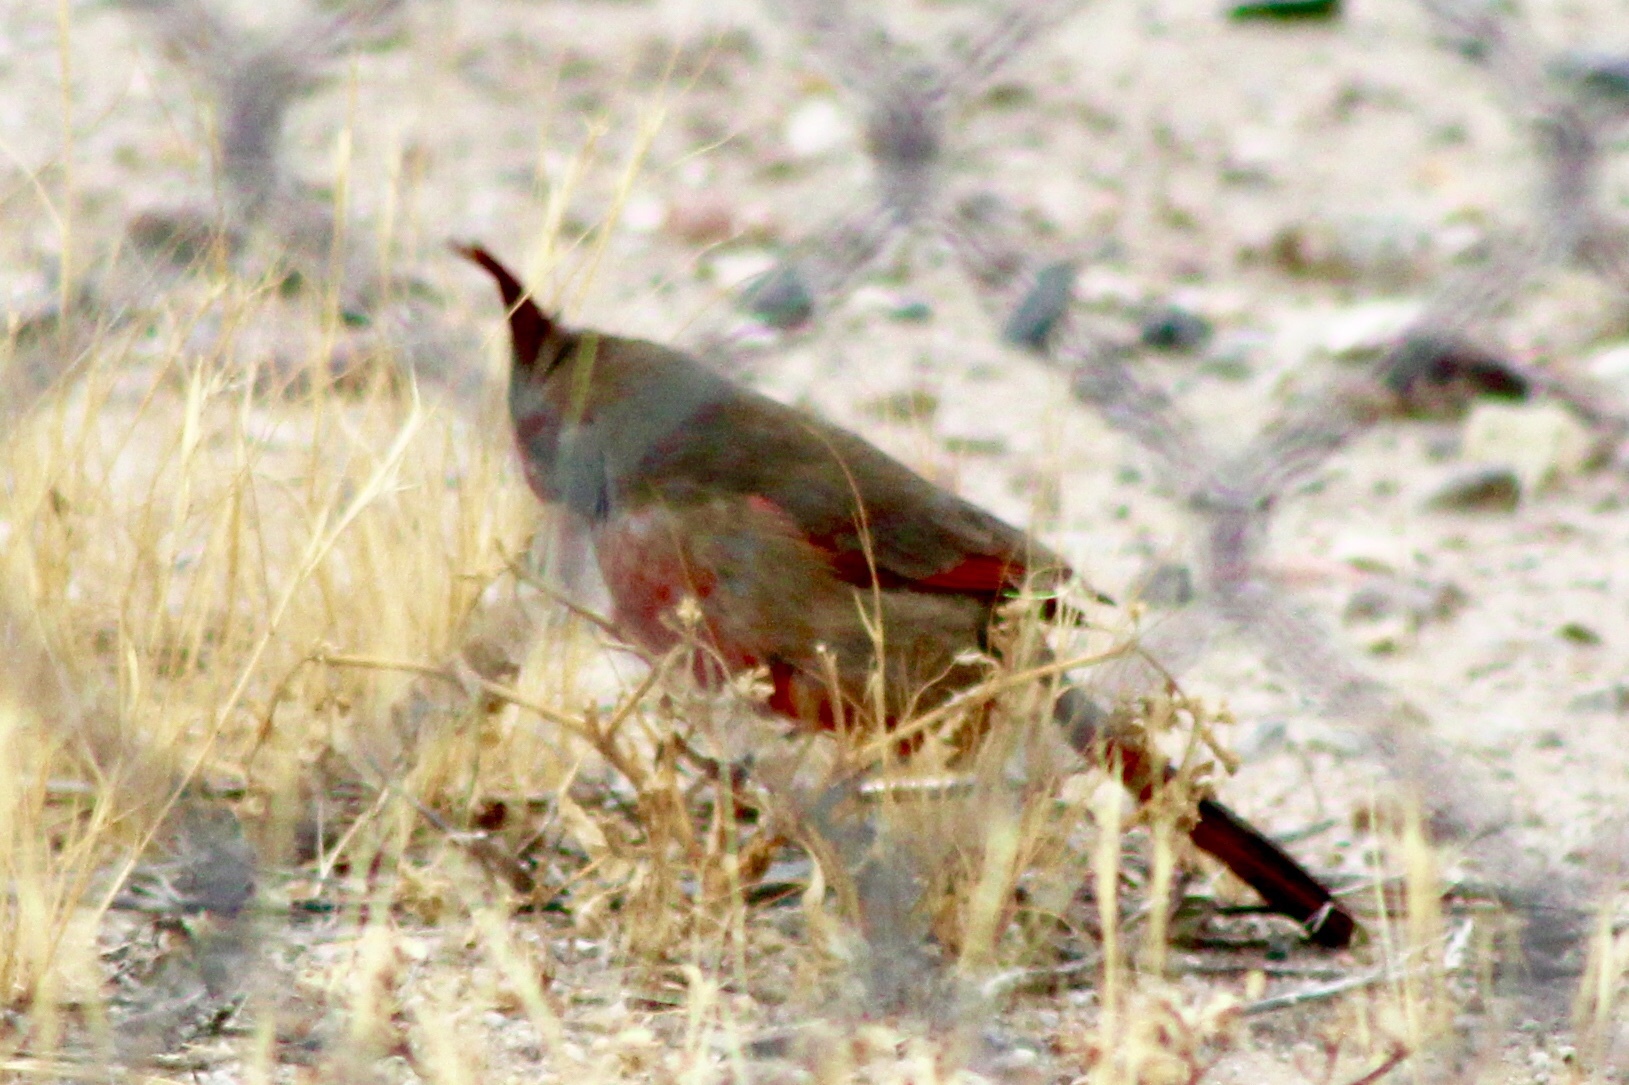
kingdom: Animalia
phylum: Chordata
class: Aves
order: Passeriformes
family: Cardinalidae
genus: Cardinalis
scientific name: Cardinalis sinuatus
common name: Pyrrhuloxia
